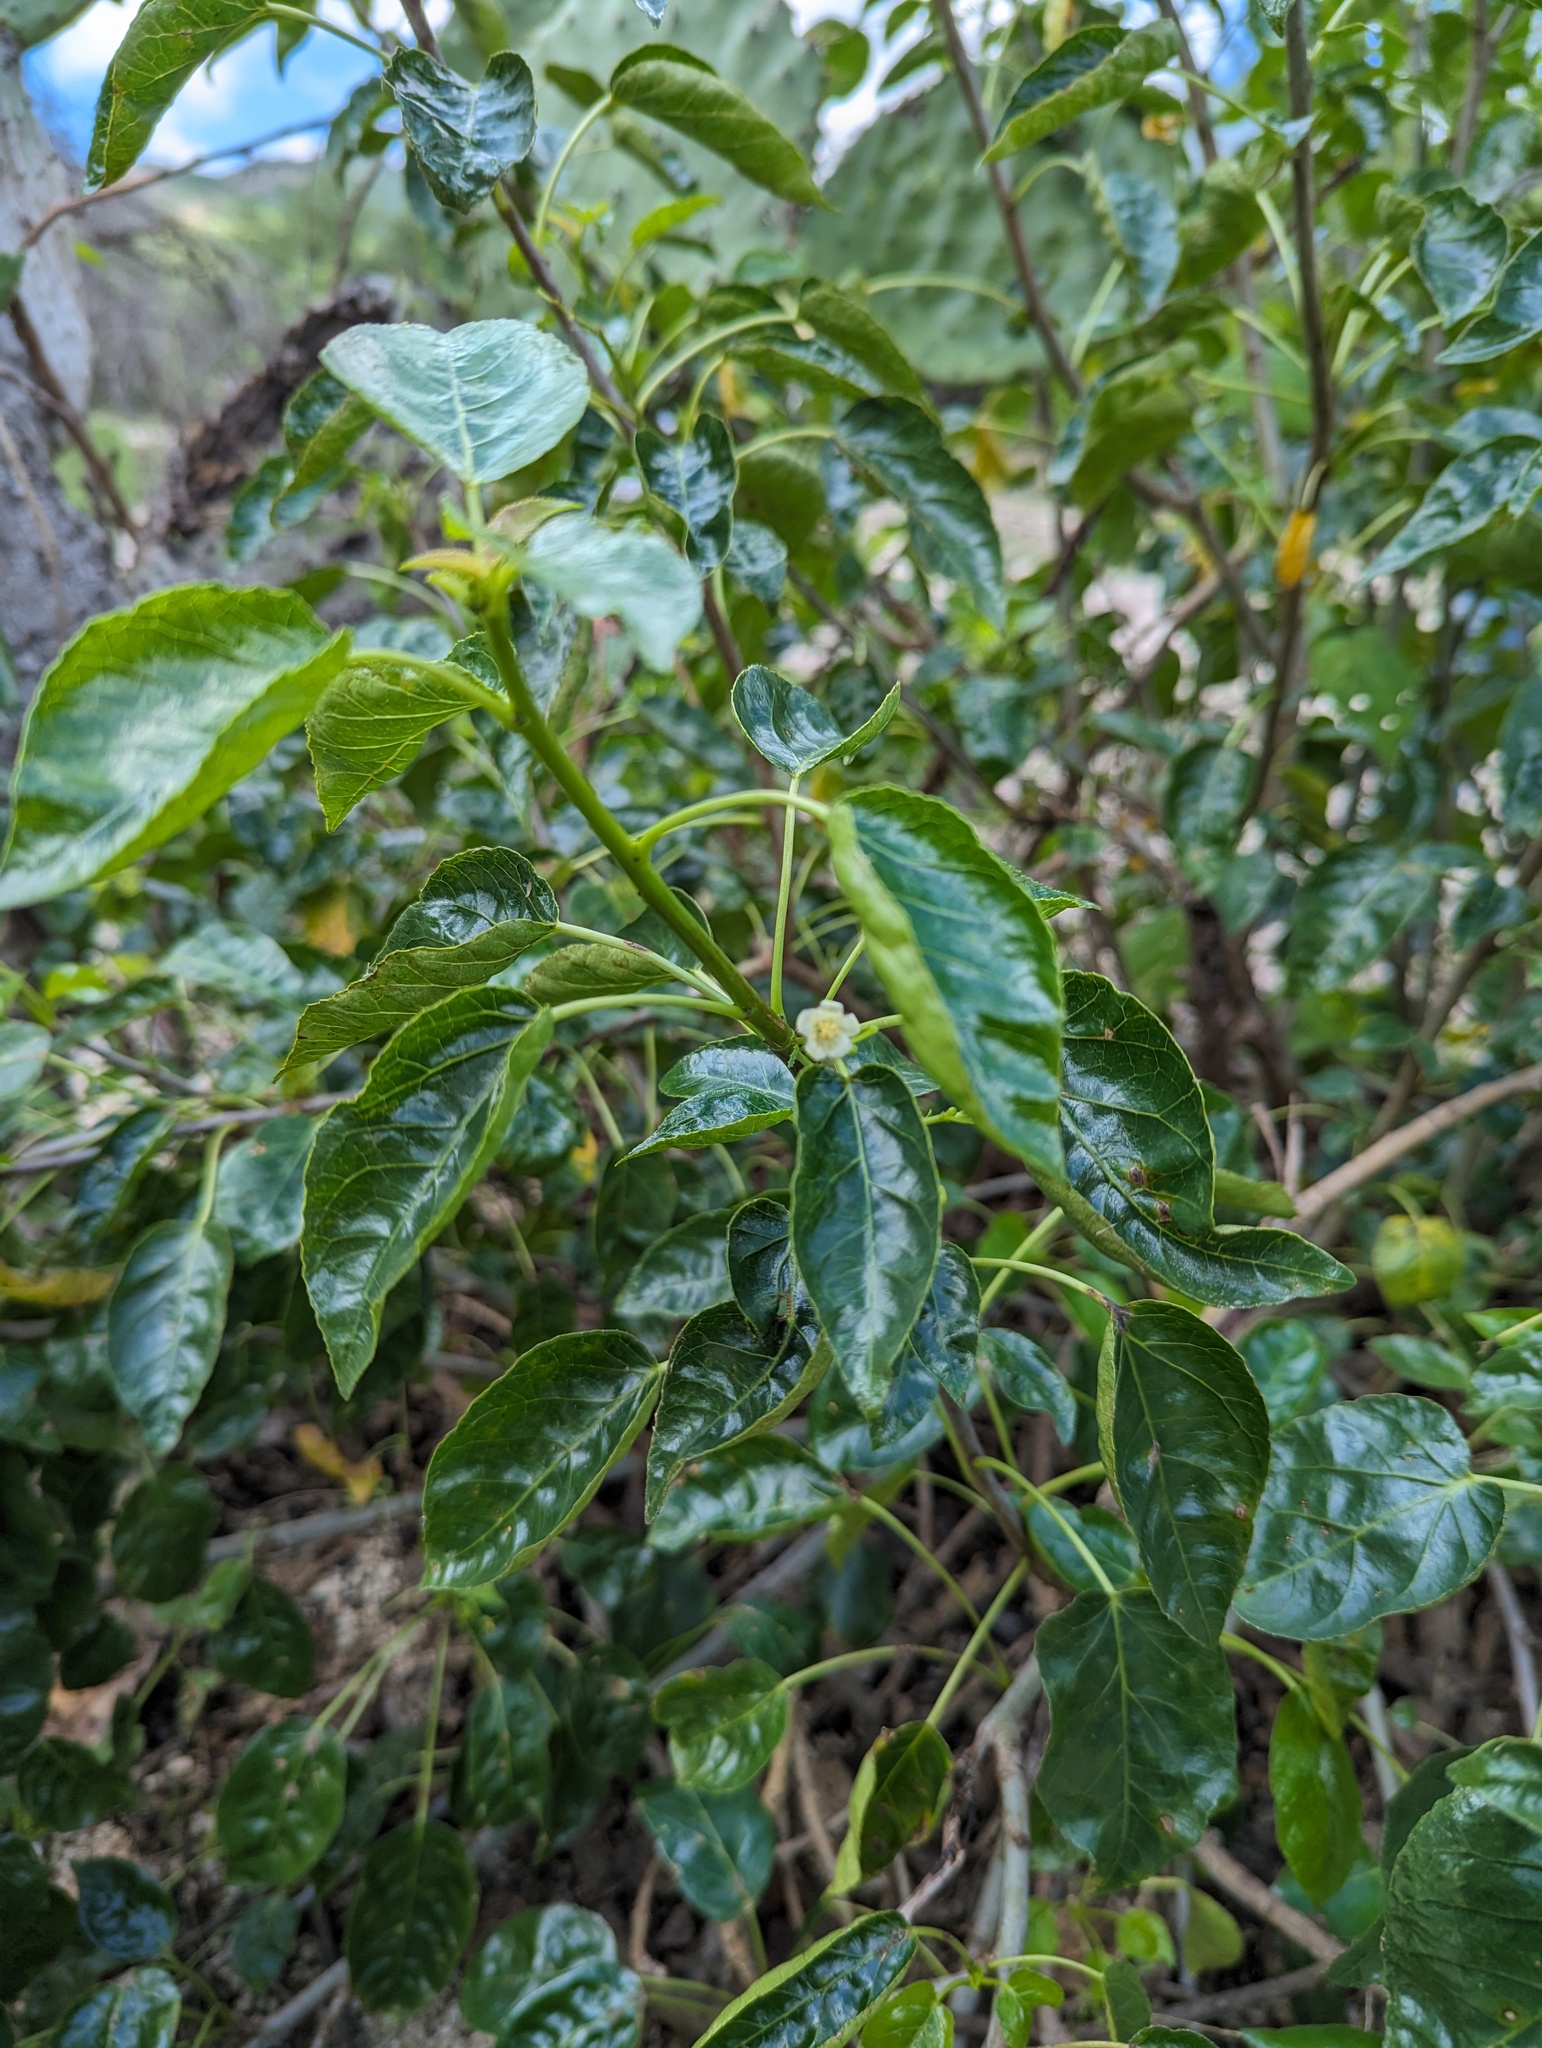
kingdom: Plantae
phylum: Tracheophyta
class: Magnoliopsida
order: Malpighiales
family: Euphorbiaceae
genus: Jatropha
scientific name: Jatropha vernicosa
